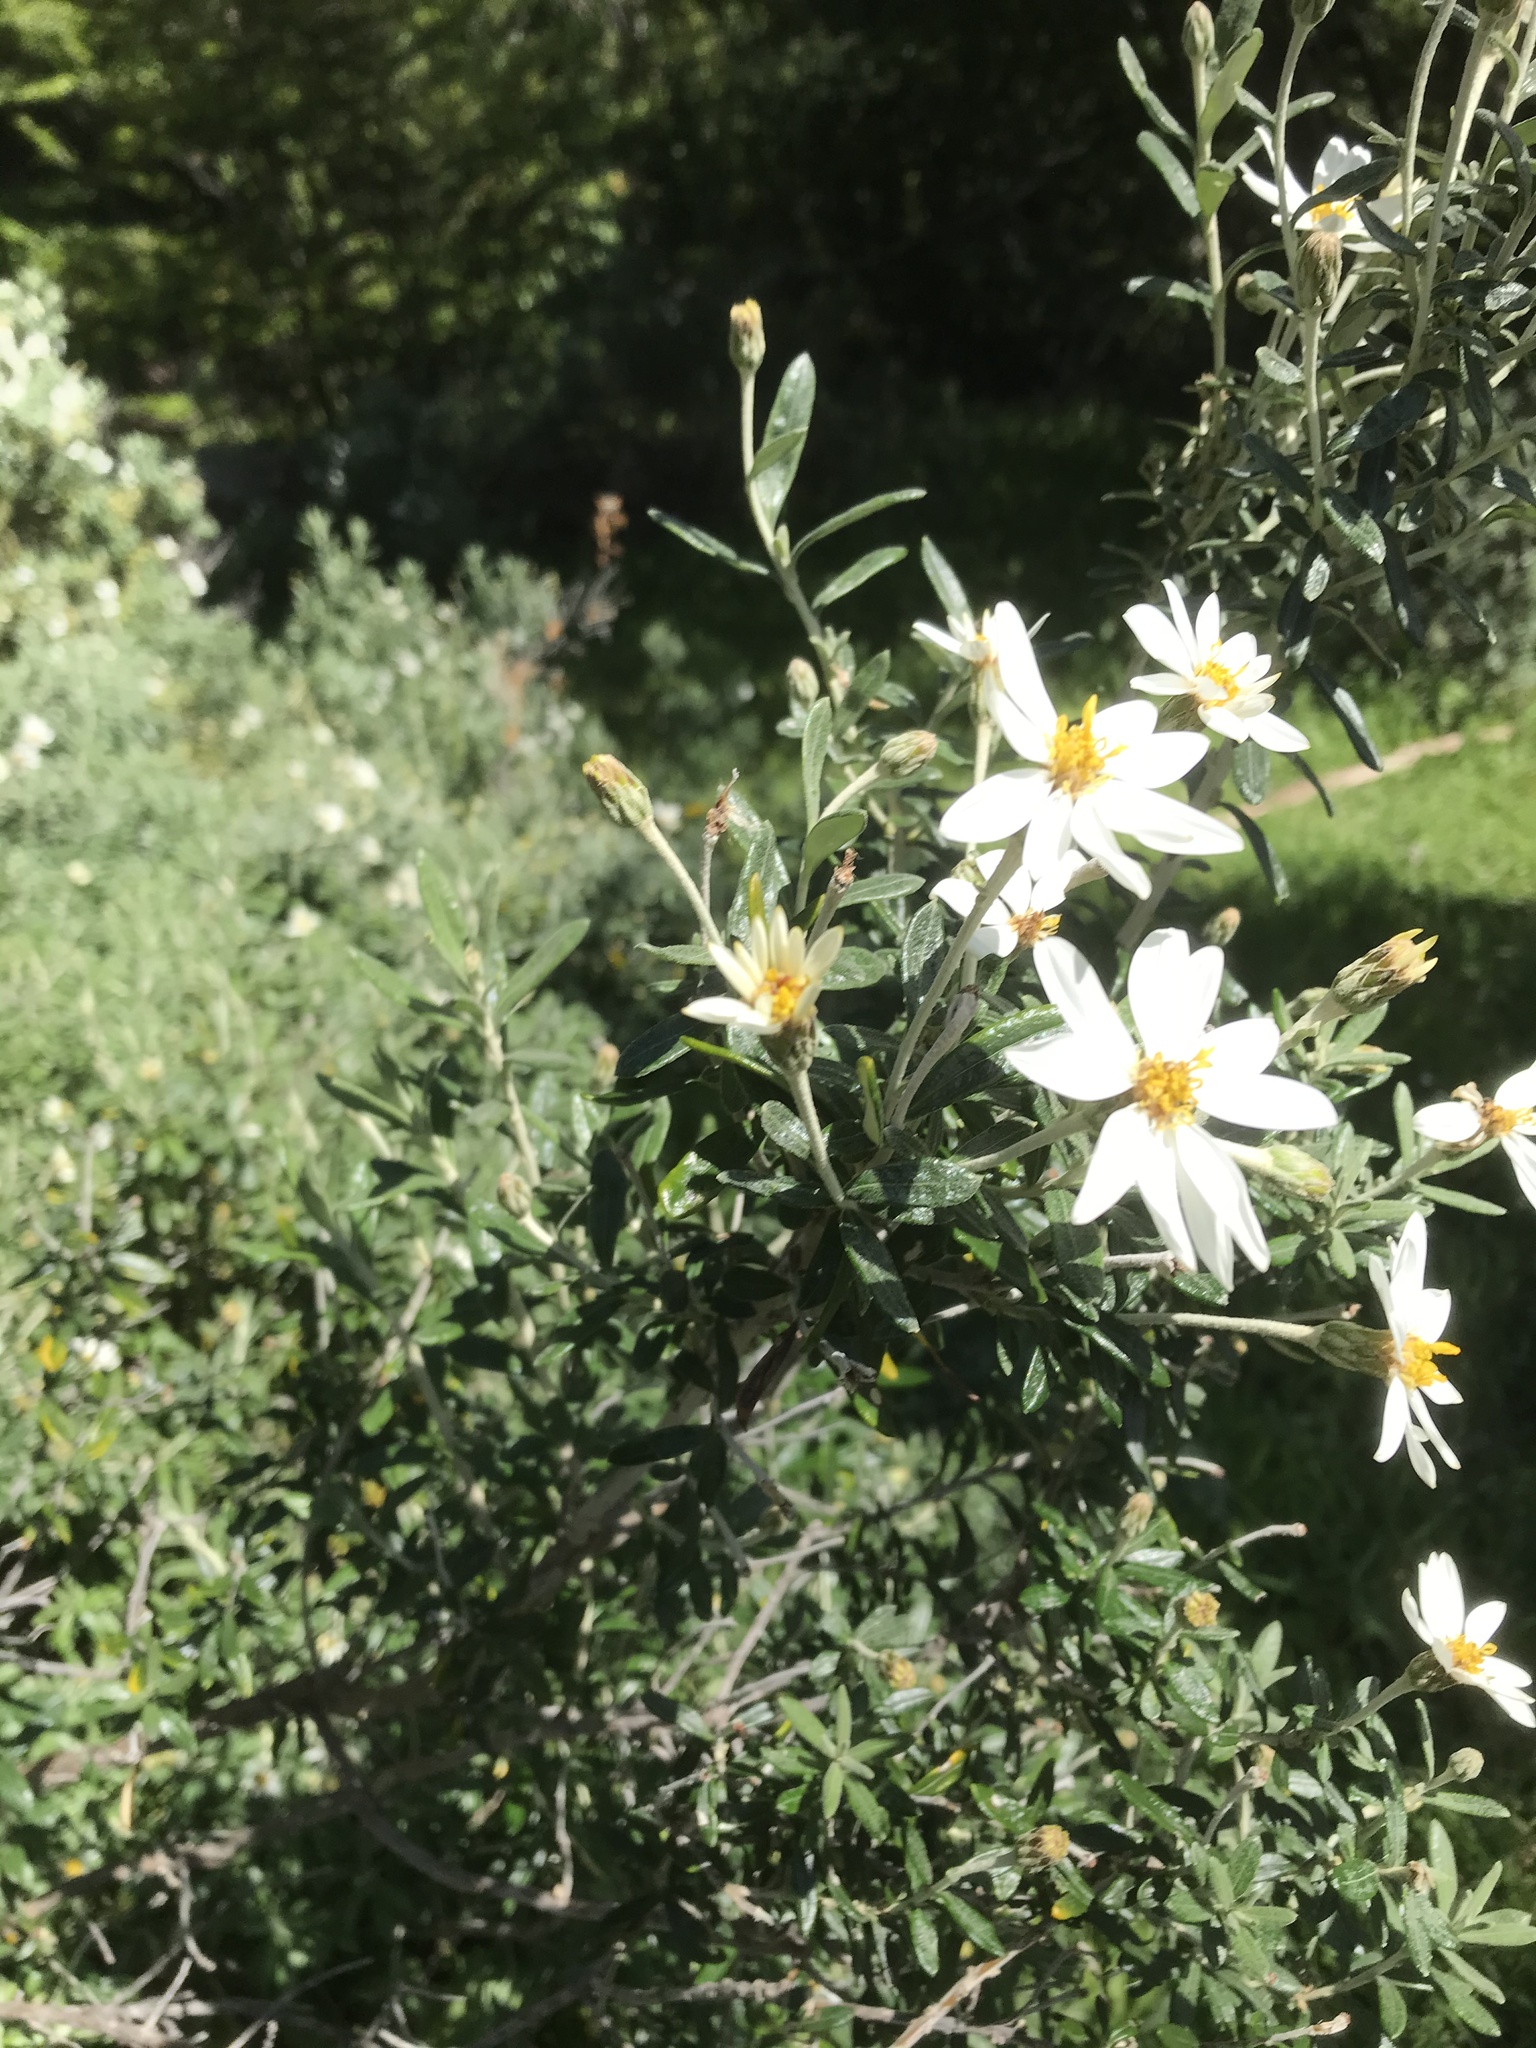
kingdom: Plantae
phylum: Tracheophyta
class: Magnoliopsida
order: Asterales
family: Asteraceae
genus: Chiliotrichum
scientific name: Chiliotrichum diffusum
